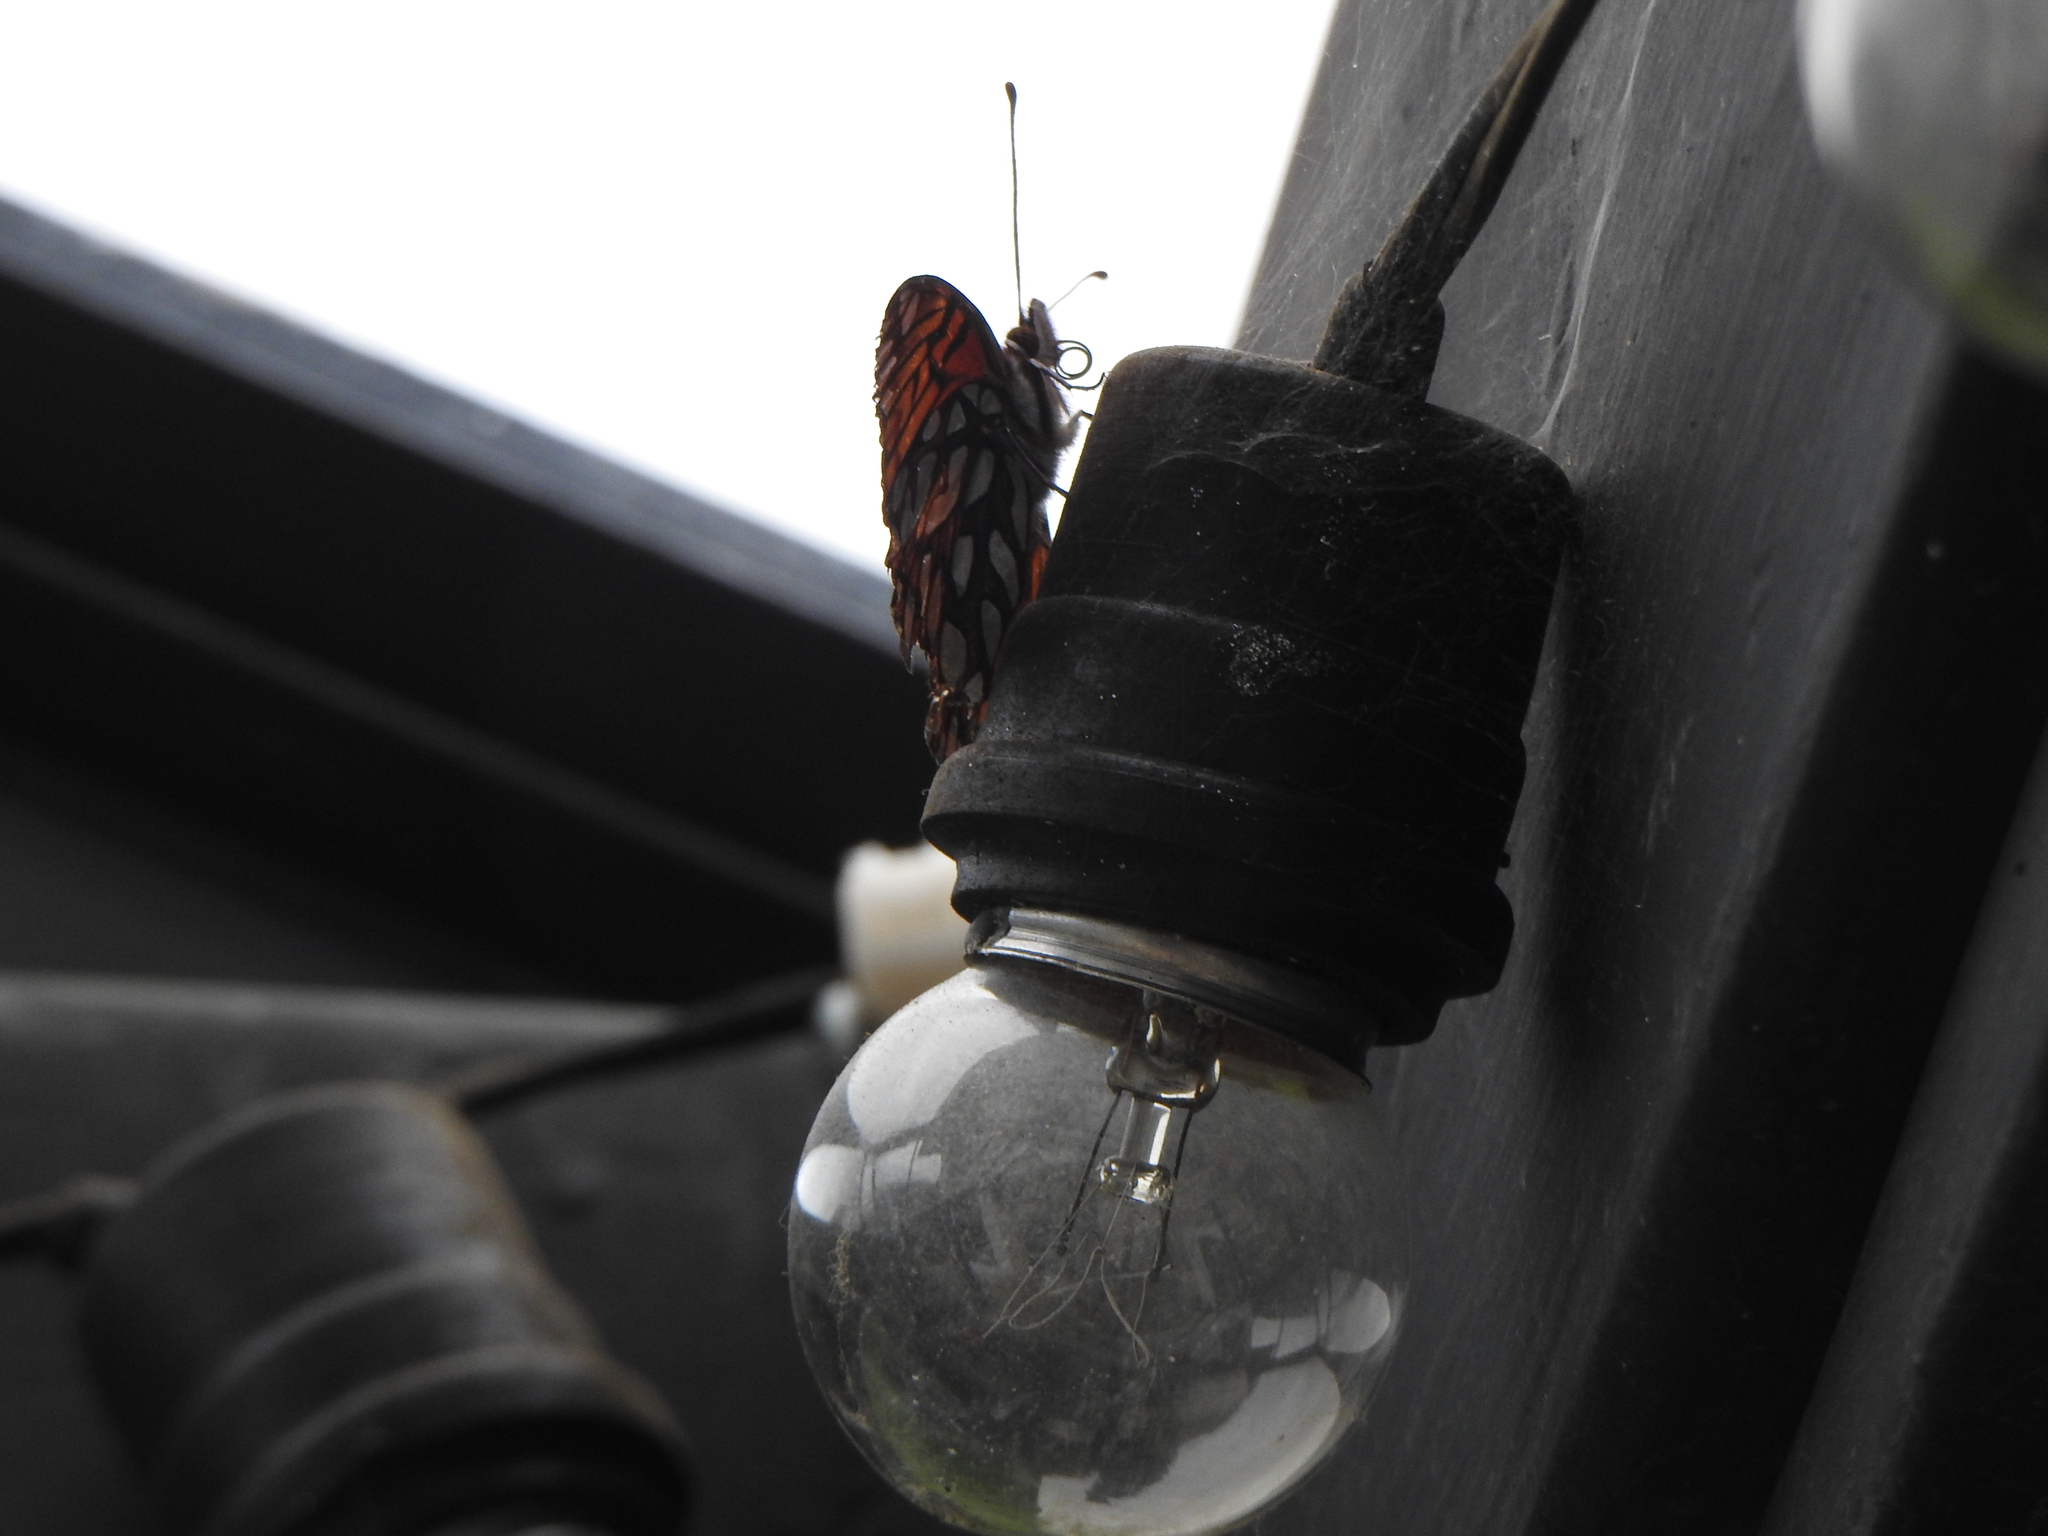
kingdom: Animalia
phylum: Arthropoda
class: Insecta
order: Lepidoptera
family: Nymphalidae
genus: Dione
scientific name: Dione glycera
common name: Andean silverspot
